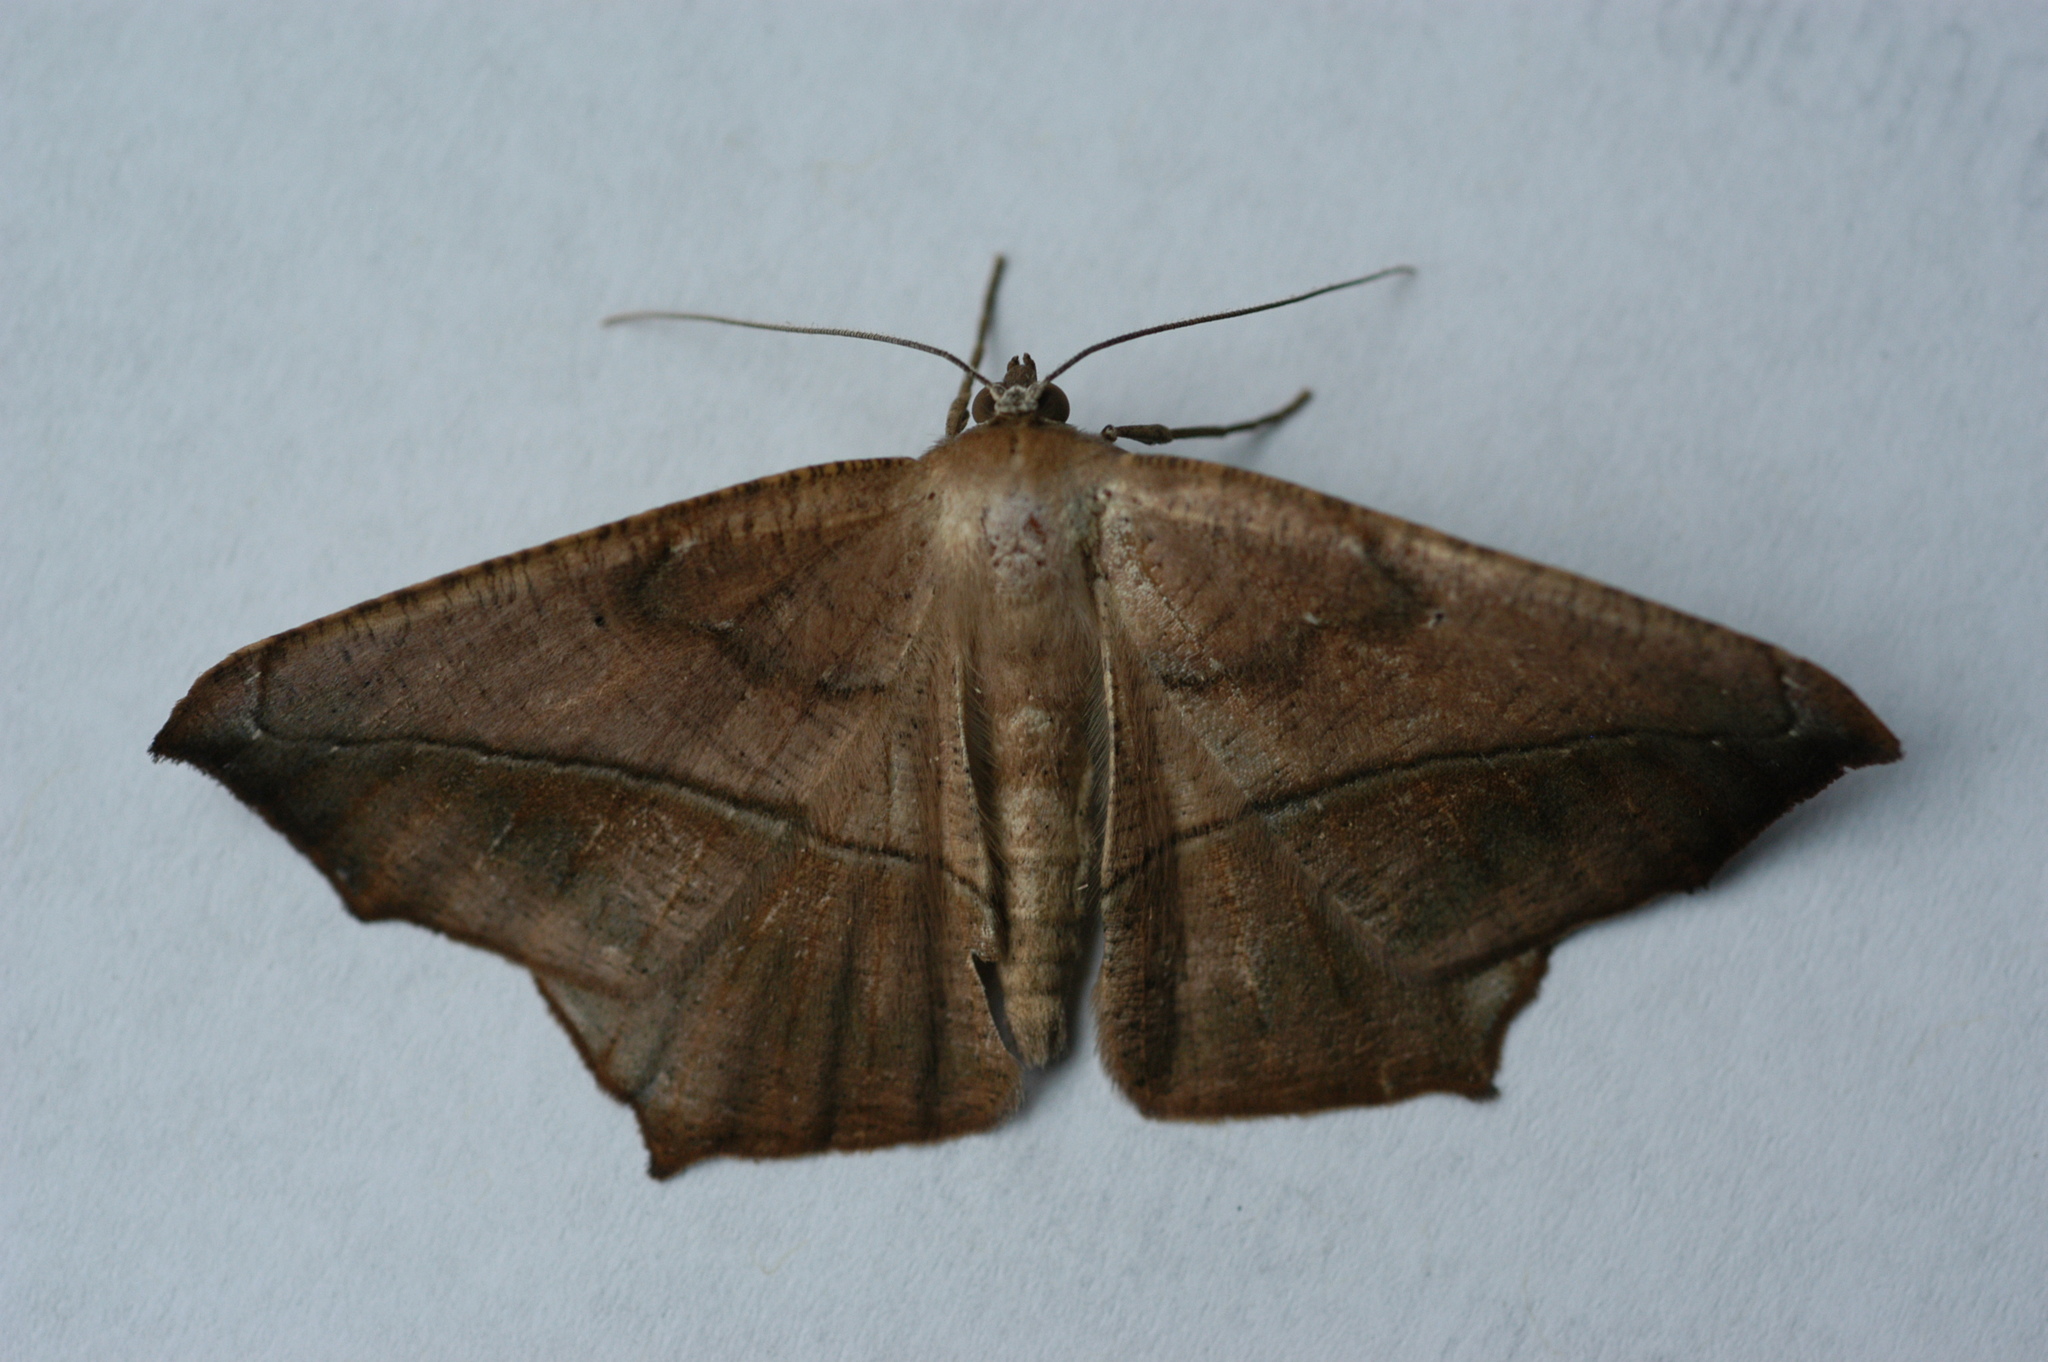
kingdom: Animalia
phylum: Arthropoda
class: Insecta
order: Lepidoptera
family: Geometridae
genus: Prochoerodes
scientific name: Prochoerodes lineola
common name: Large maple spanworm
